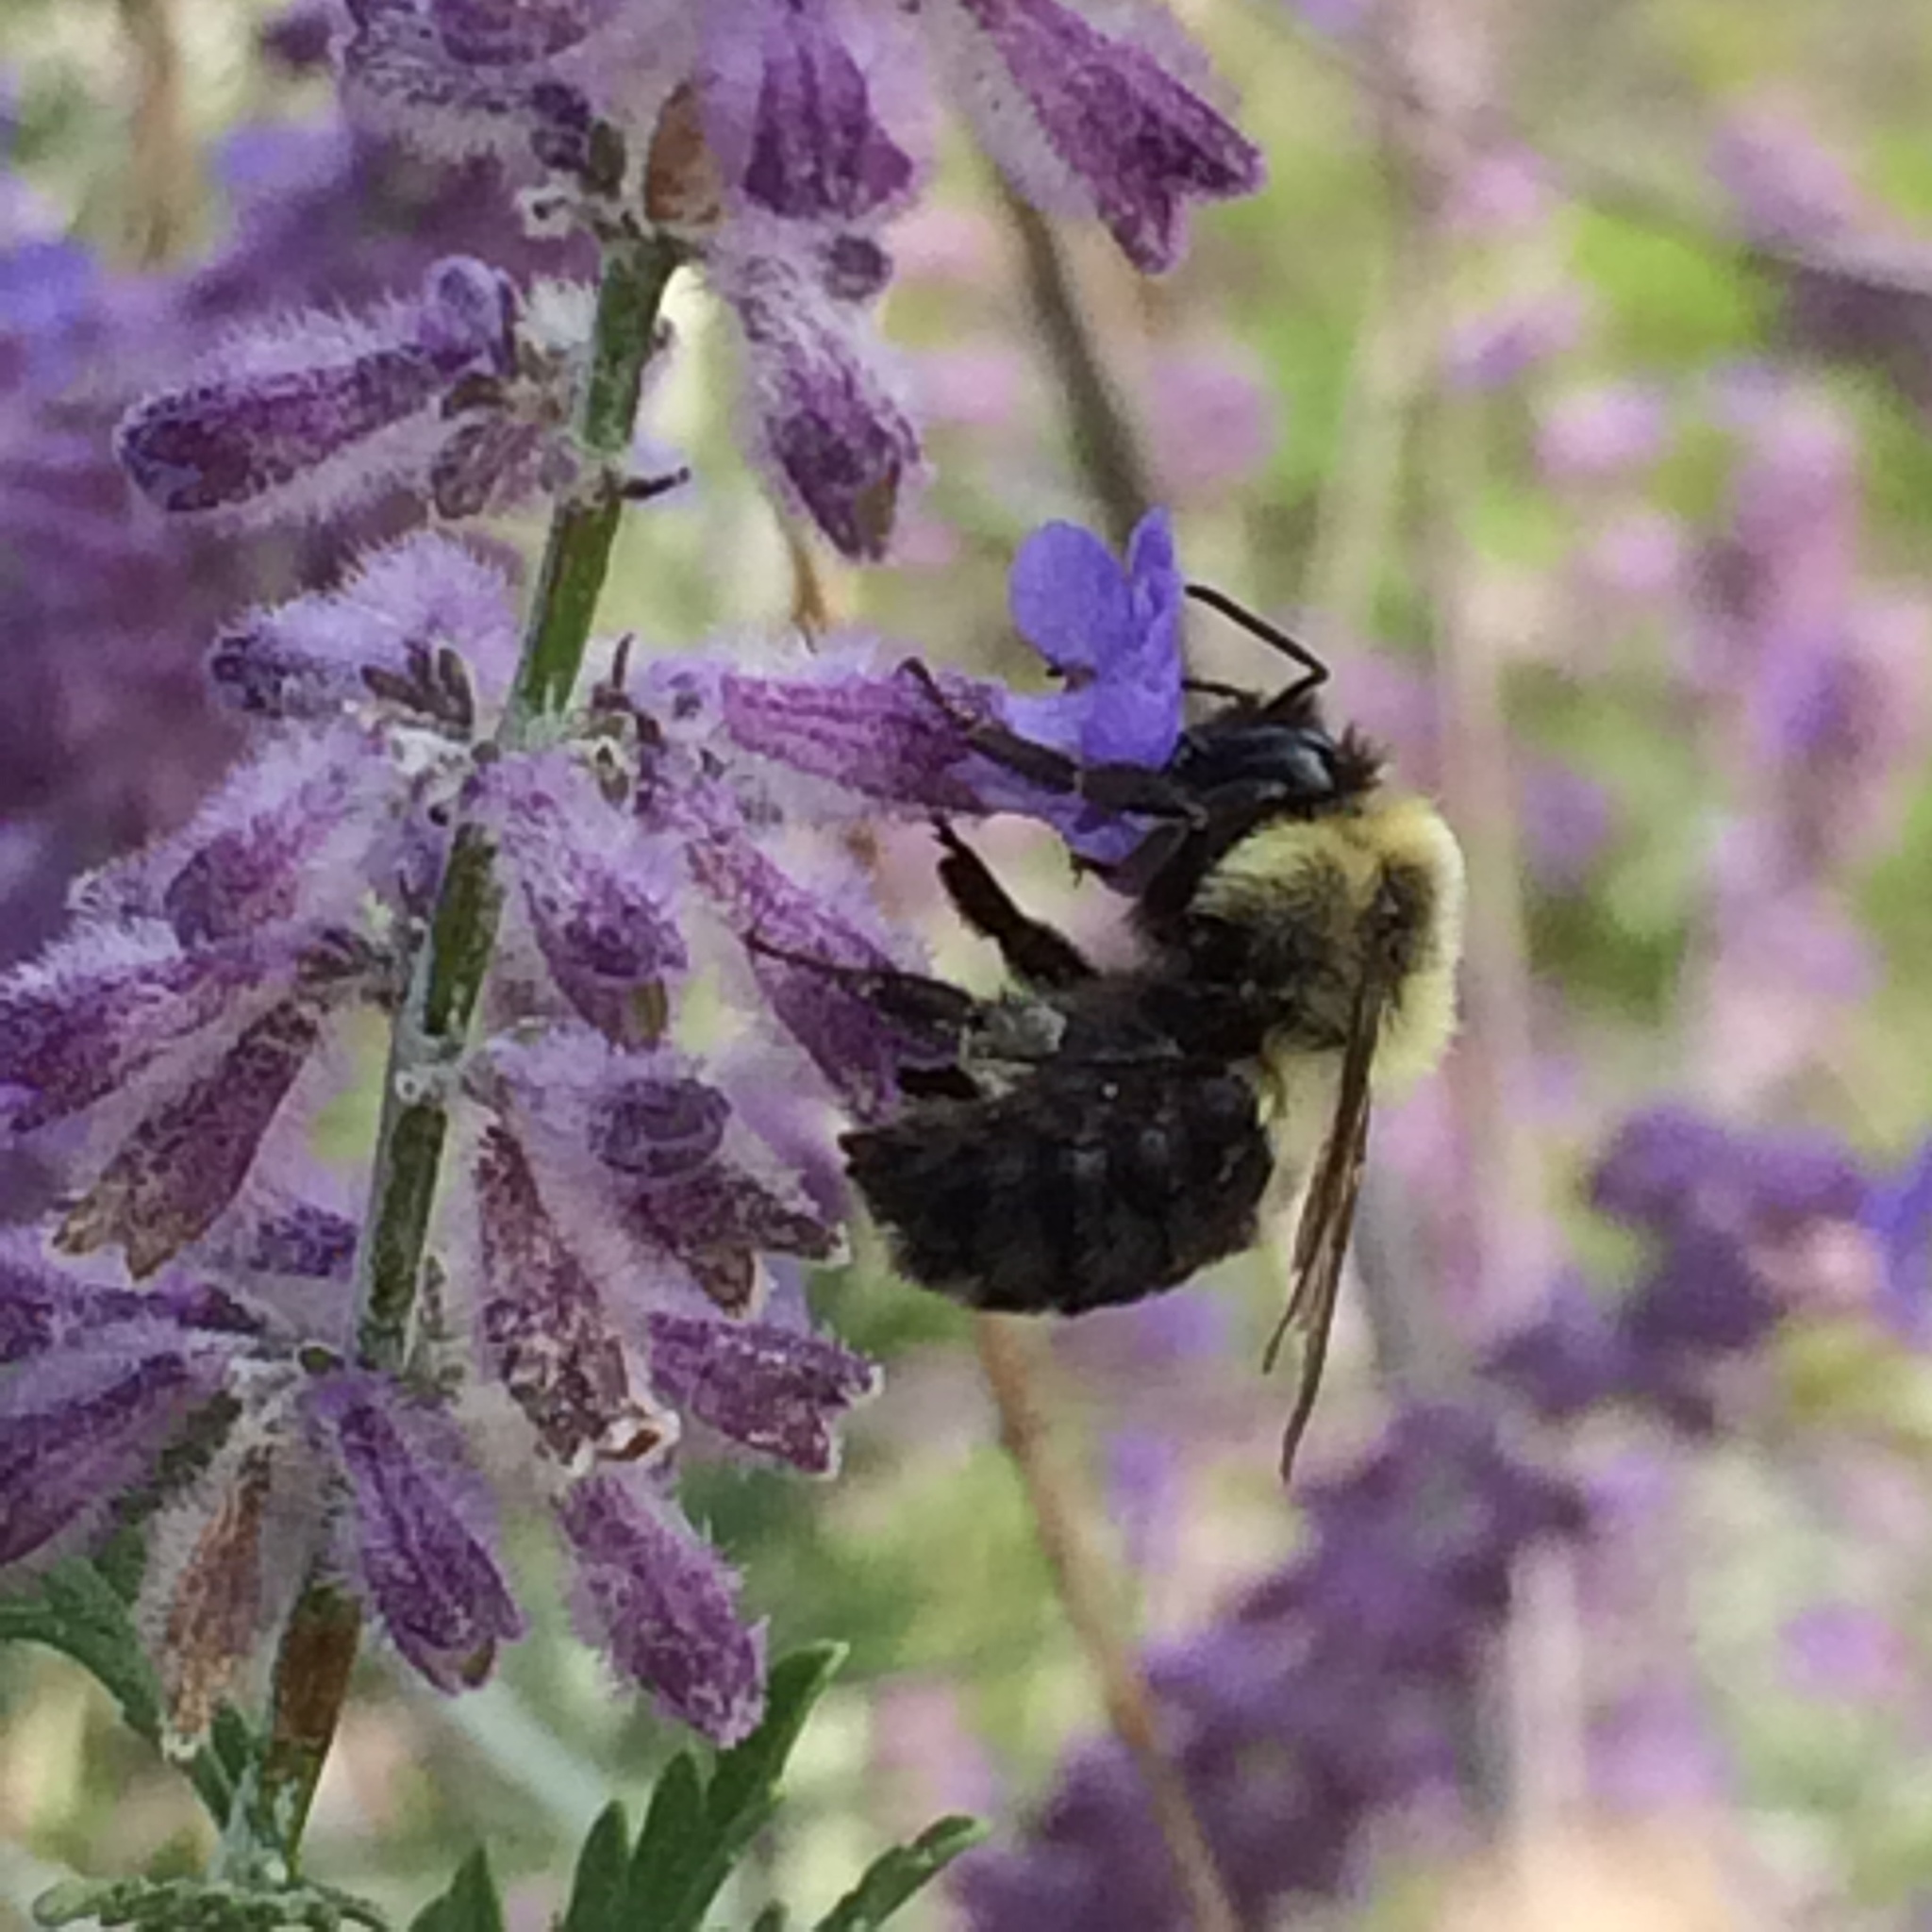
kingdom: Animalia
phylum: Arthropoda
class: Insecta
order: Hymenoptera
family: Apidae
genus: Bombus
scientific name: Bombus impatiens
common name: Common eastern bumble bee
